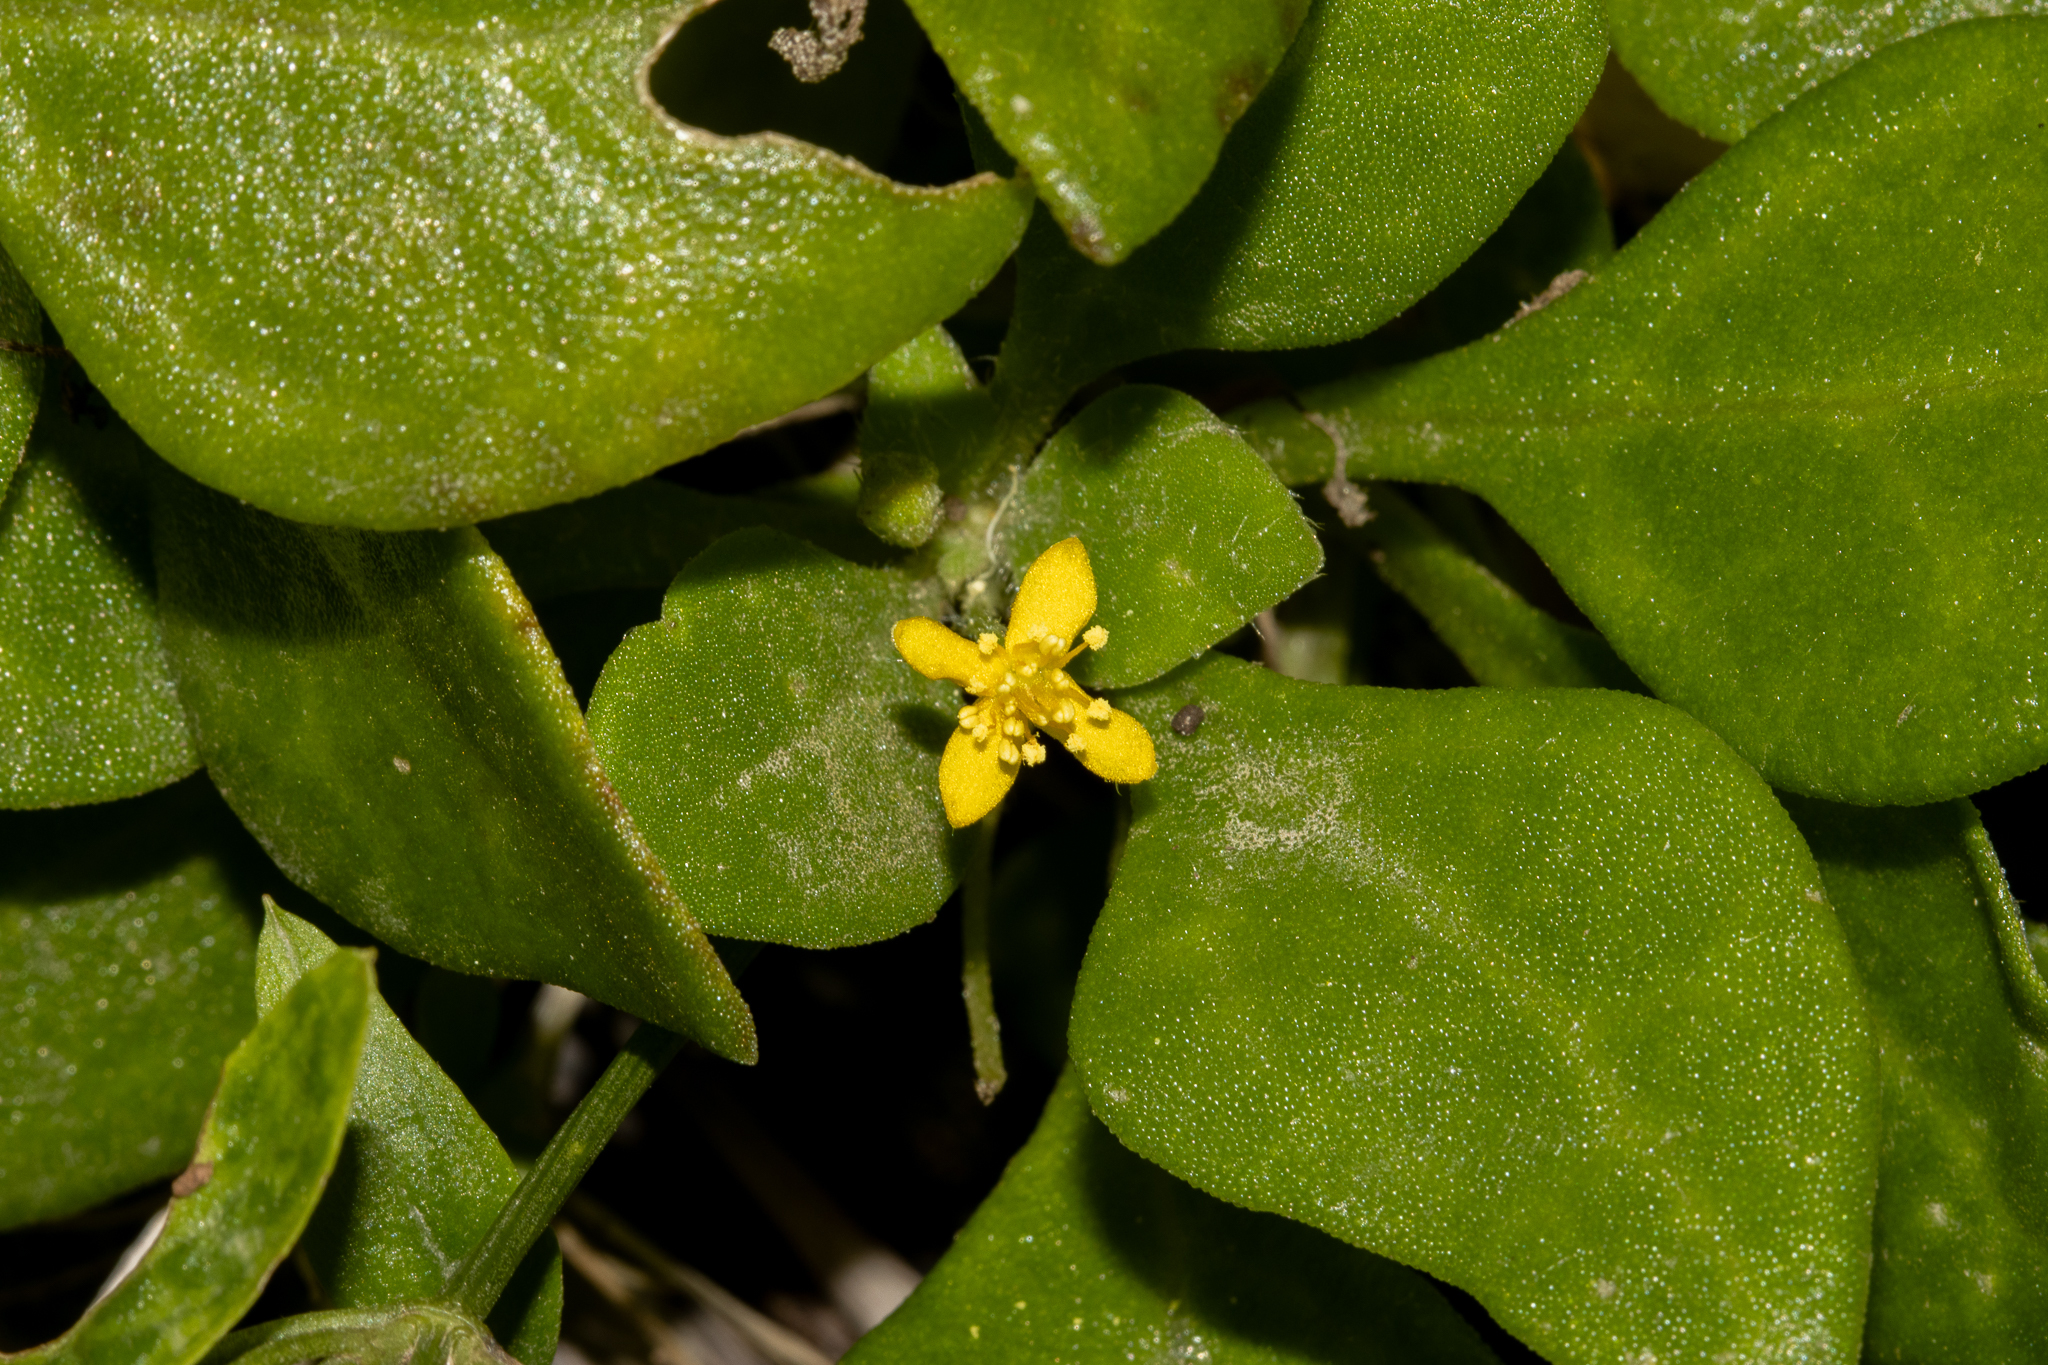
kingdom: Plantae
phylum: Tracheophyta
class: Magnoliopsida
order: Caryophyllales
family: Aizoaceae
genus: Tetragonia
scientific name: Tetragonia implexicoma
